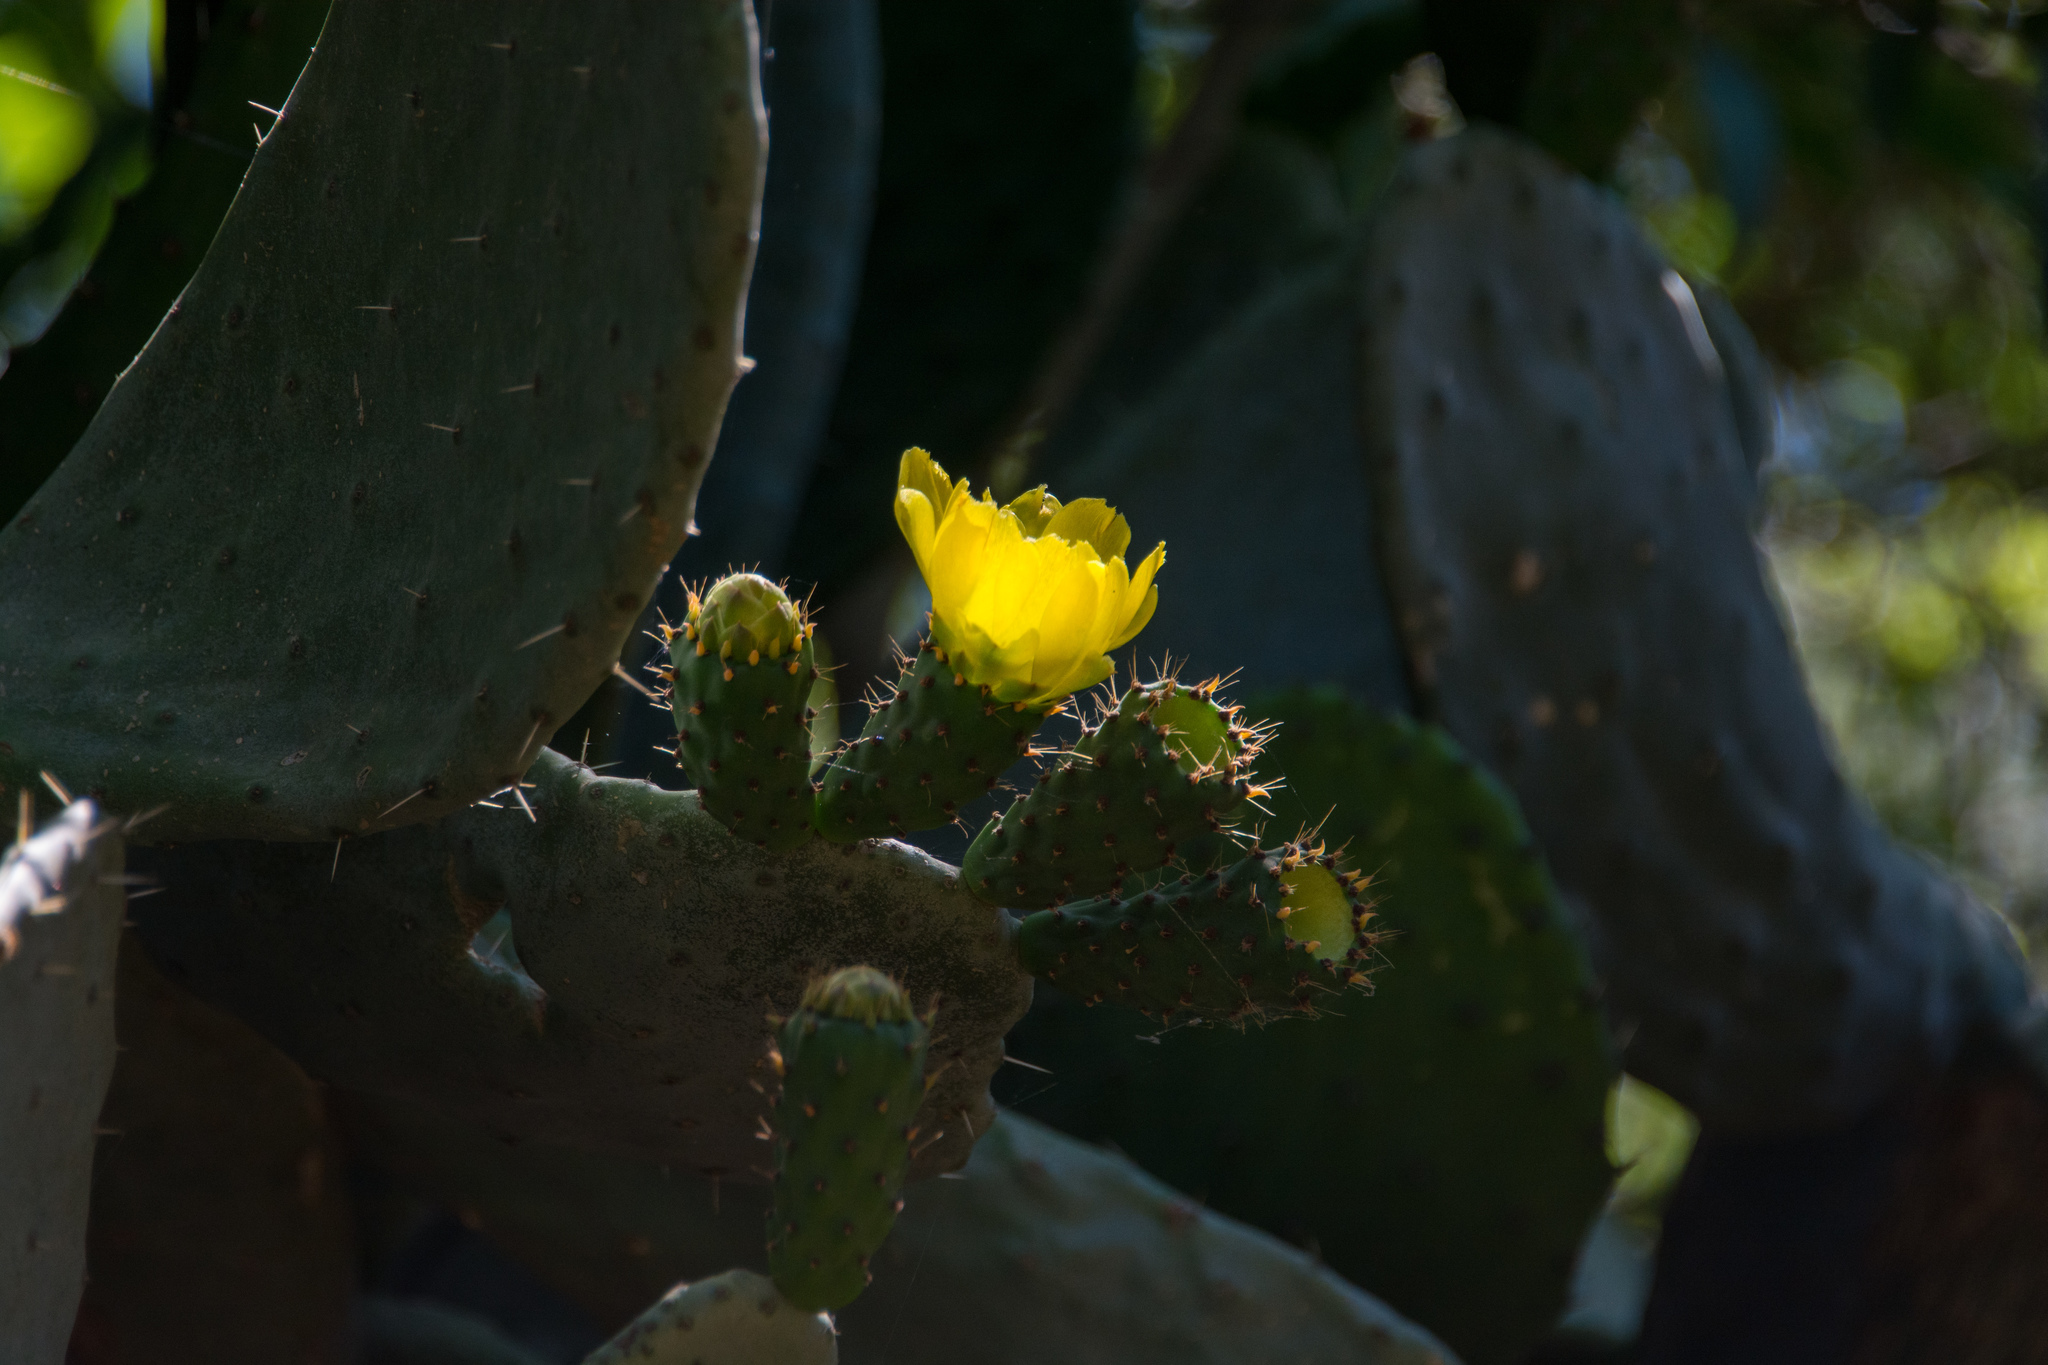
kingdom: Plantae
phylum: Tracheophyta
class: Magnoliopsida
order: Caryophyllales
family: Cactaceae
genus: Opuntia
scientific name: Opuntia ficus-indica
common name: Barbary fig
